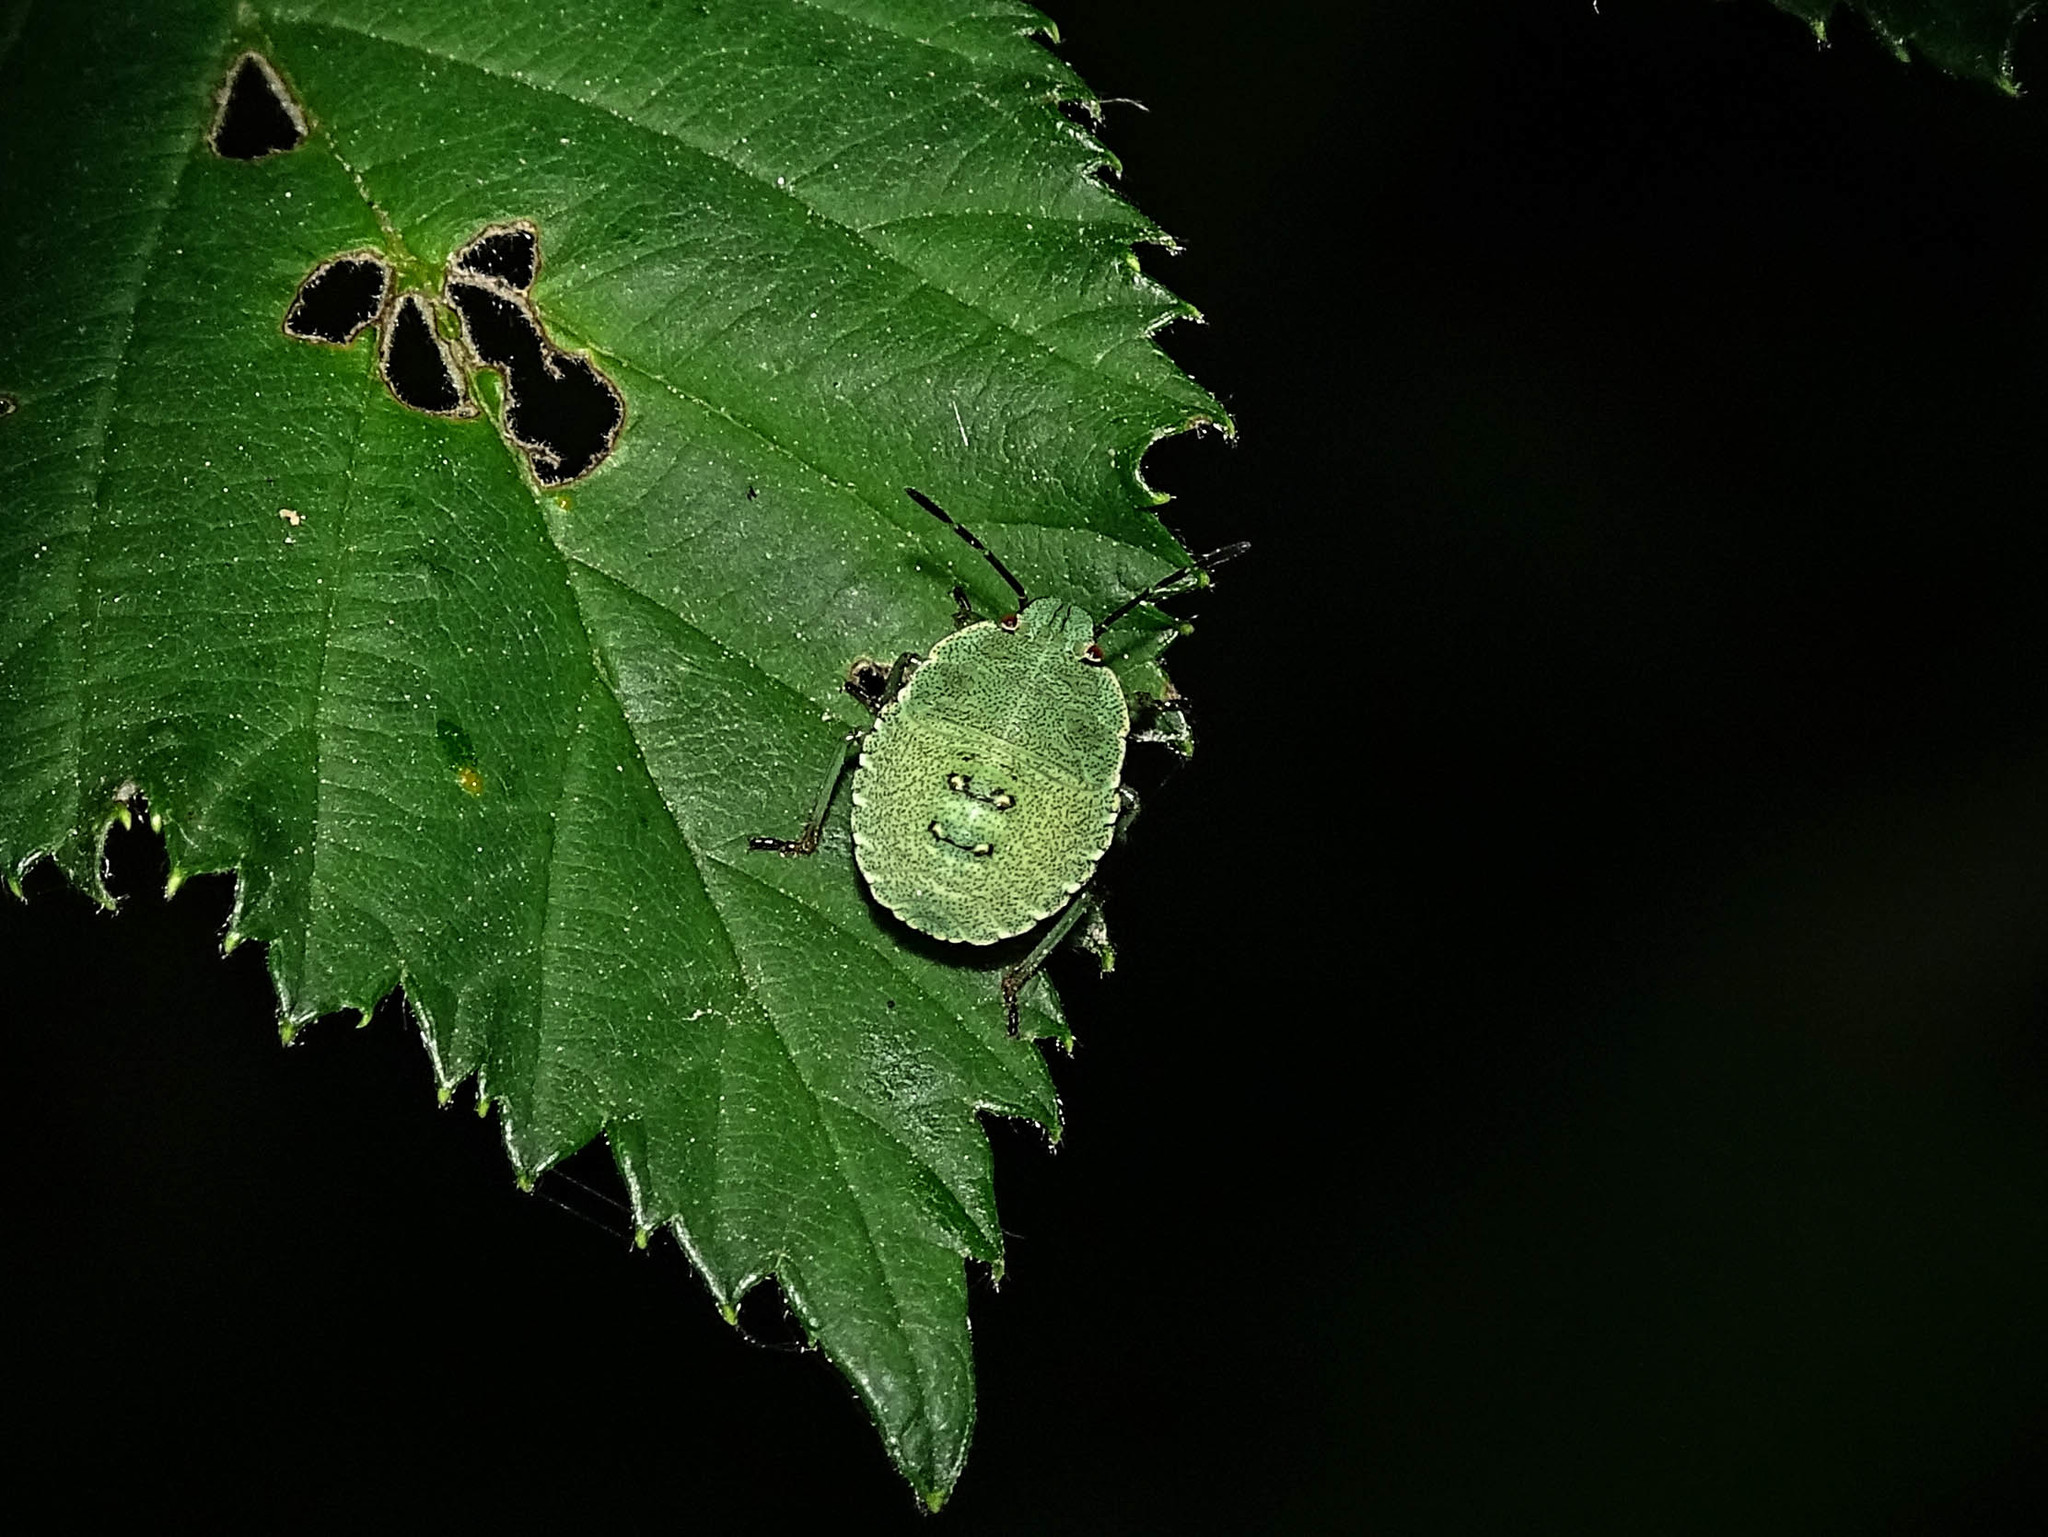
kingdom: Animalia
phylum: Arthropoda
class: Insecta
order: Hemiptera
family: Pentatomidae
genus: Palomena
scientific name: Palomena prasina
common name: Green shieldbug
